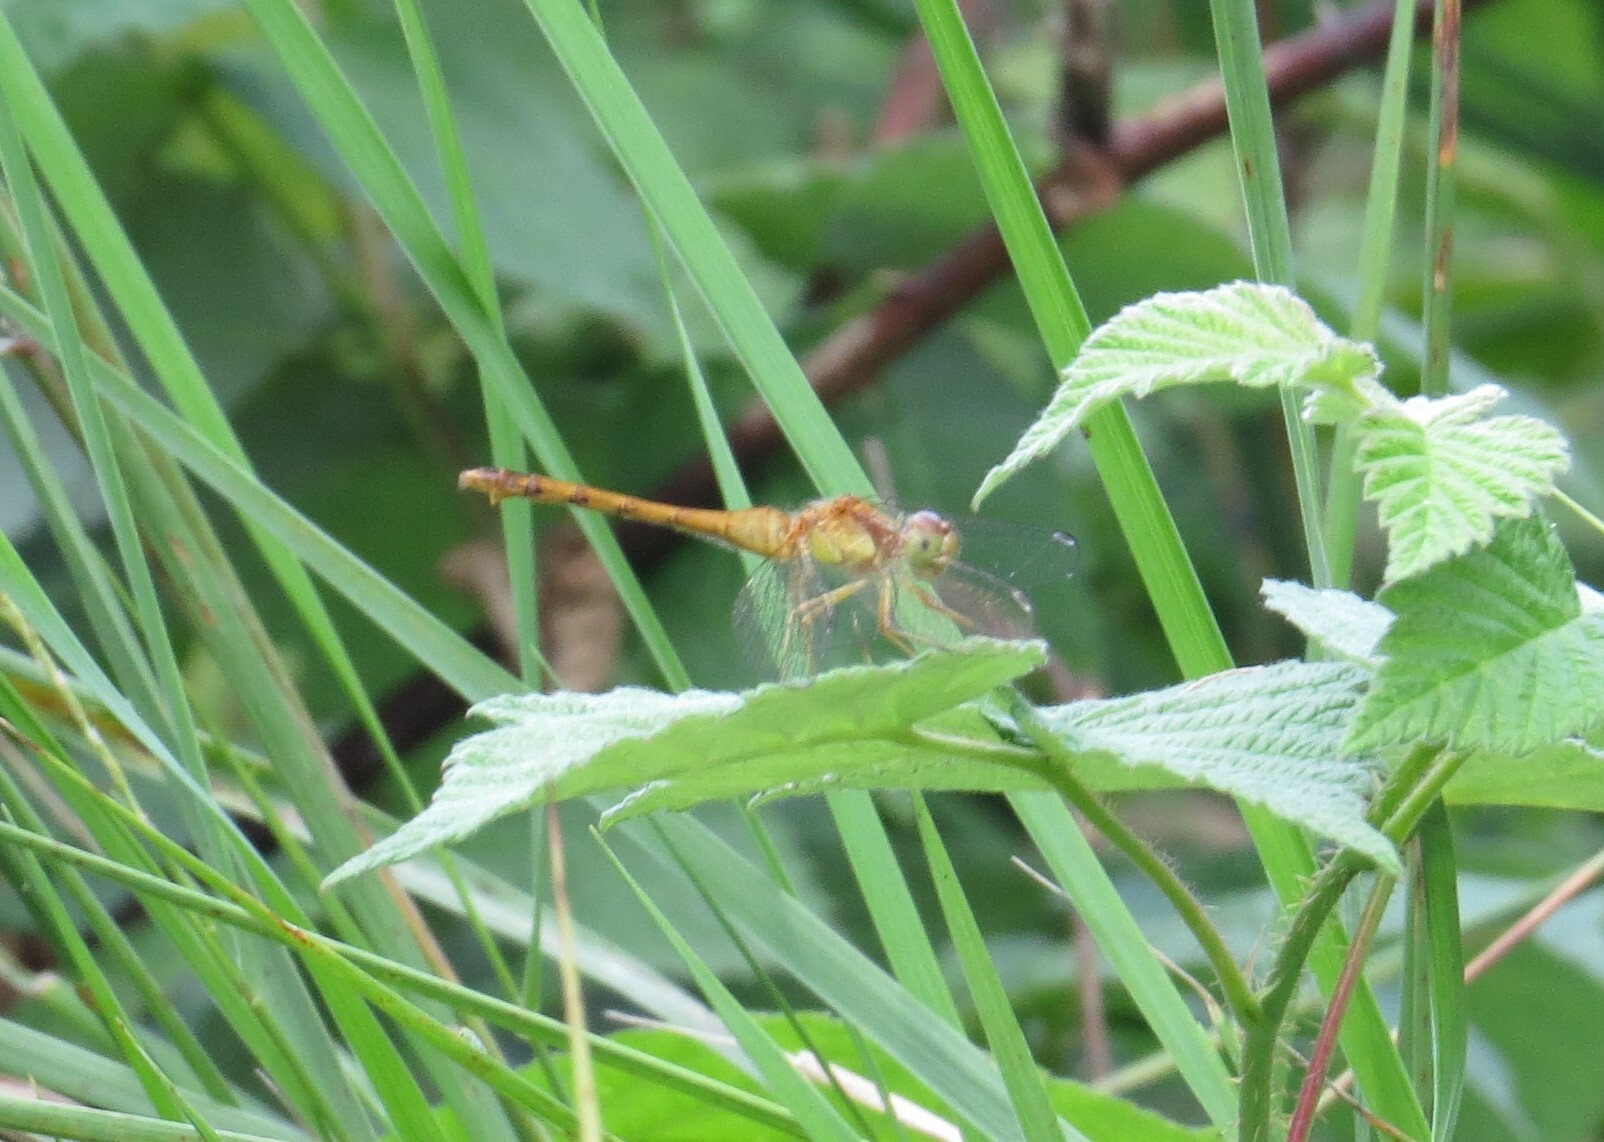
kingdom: Animalia
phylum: Arthropoda
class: Insecta
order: Odonata
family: Libellulidae
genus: Sympetrum
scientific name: Sympetrum vicinum
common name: Autumn meadowhawk
